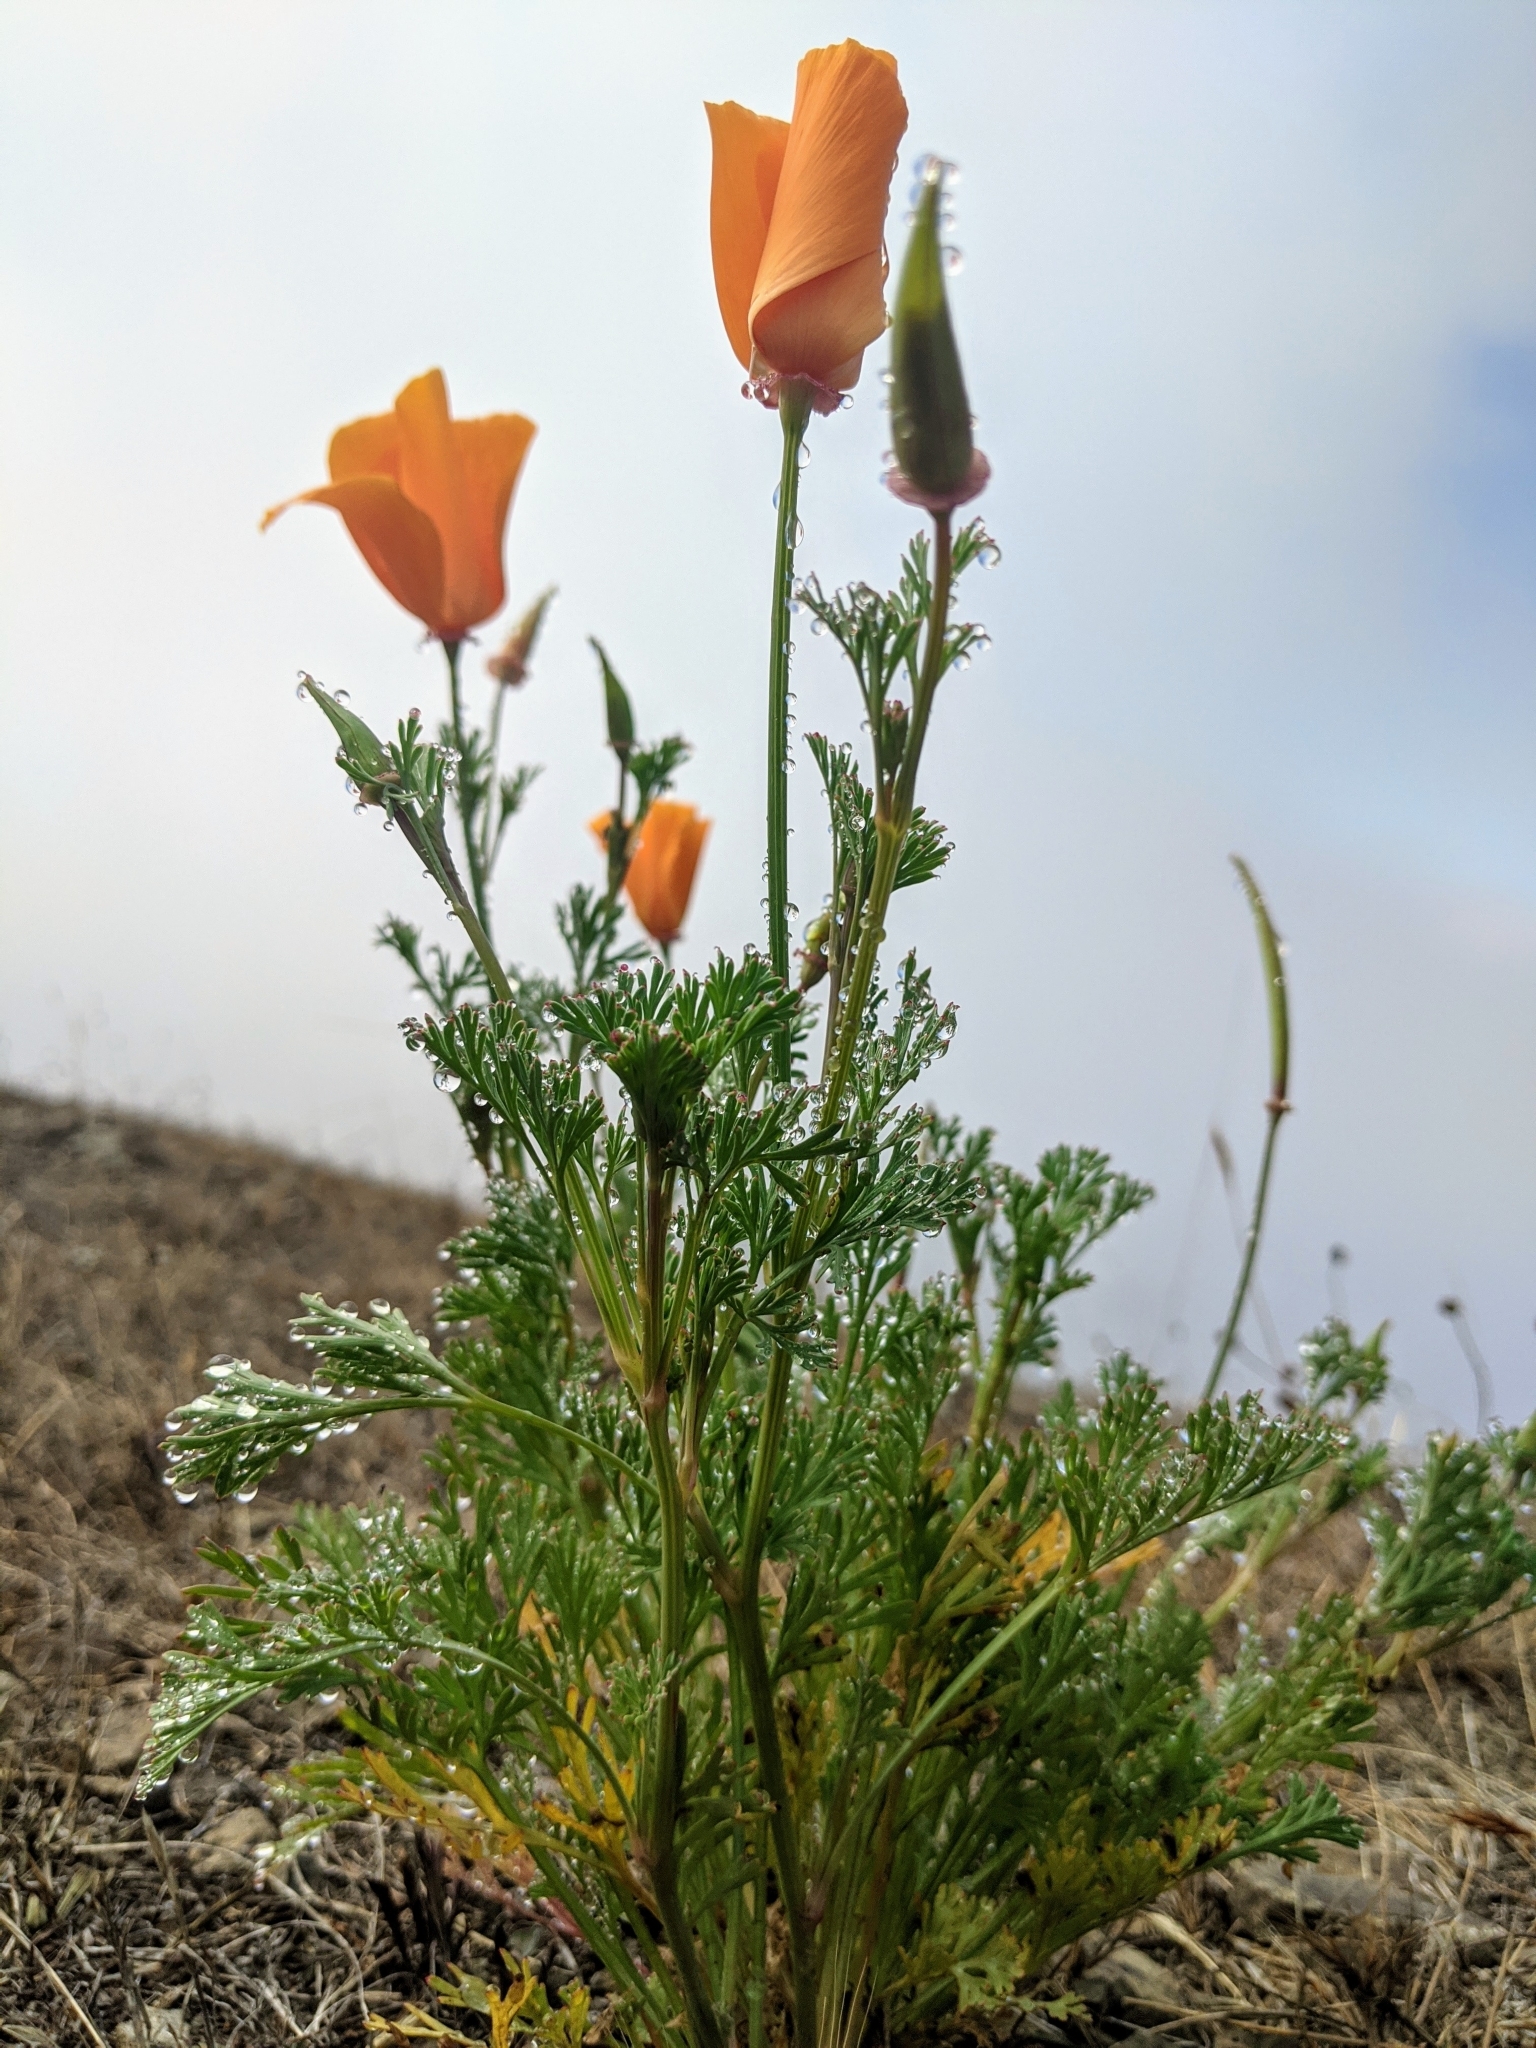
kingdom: Plantae
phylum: Tracheophyta
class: Magnoliopsida
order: Ranunculales
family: Papaveraceae
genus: Eschscholzia
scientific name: Eschscholzia californica
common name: California poppy
